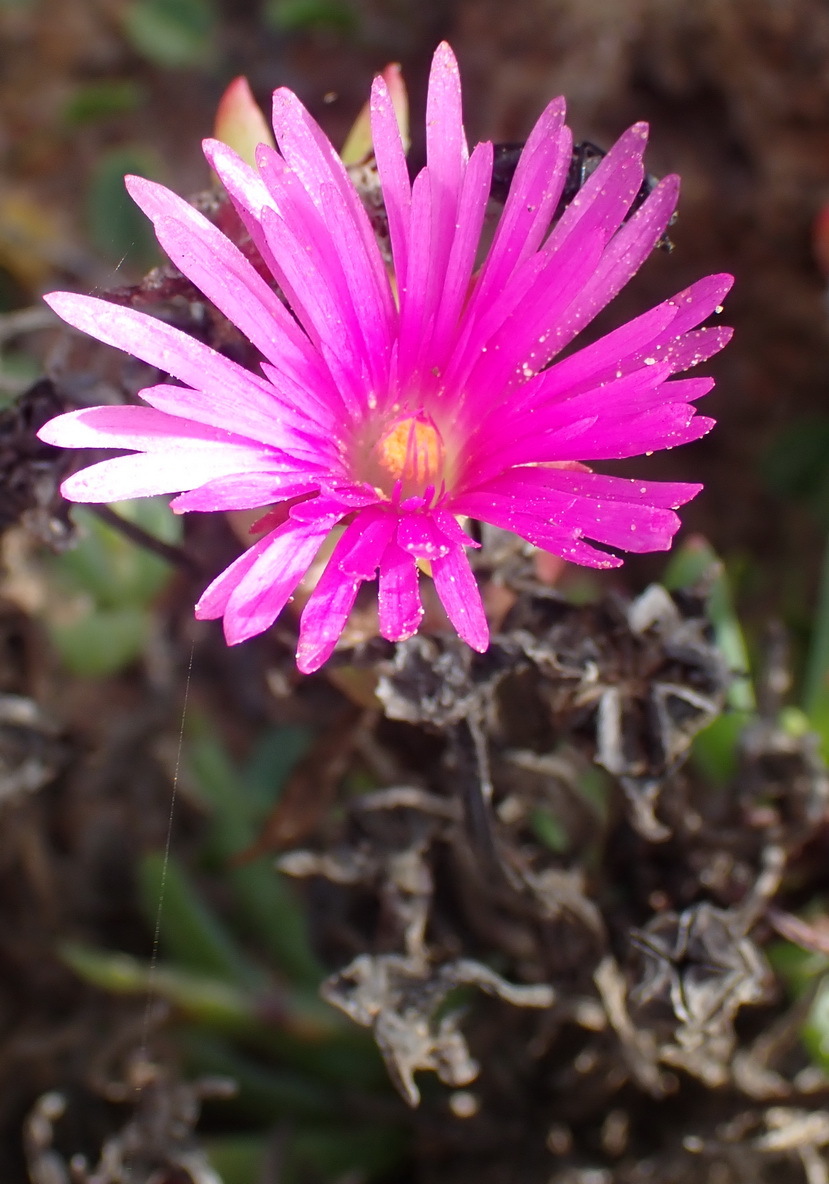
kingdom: Plantae
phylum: Tracheophyta
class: Magnoliopsida
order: Caryophyllales
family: Aizoaceae
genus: Lampranthus
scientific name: Lampranthus pauciflorus
